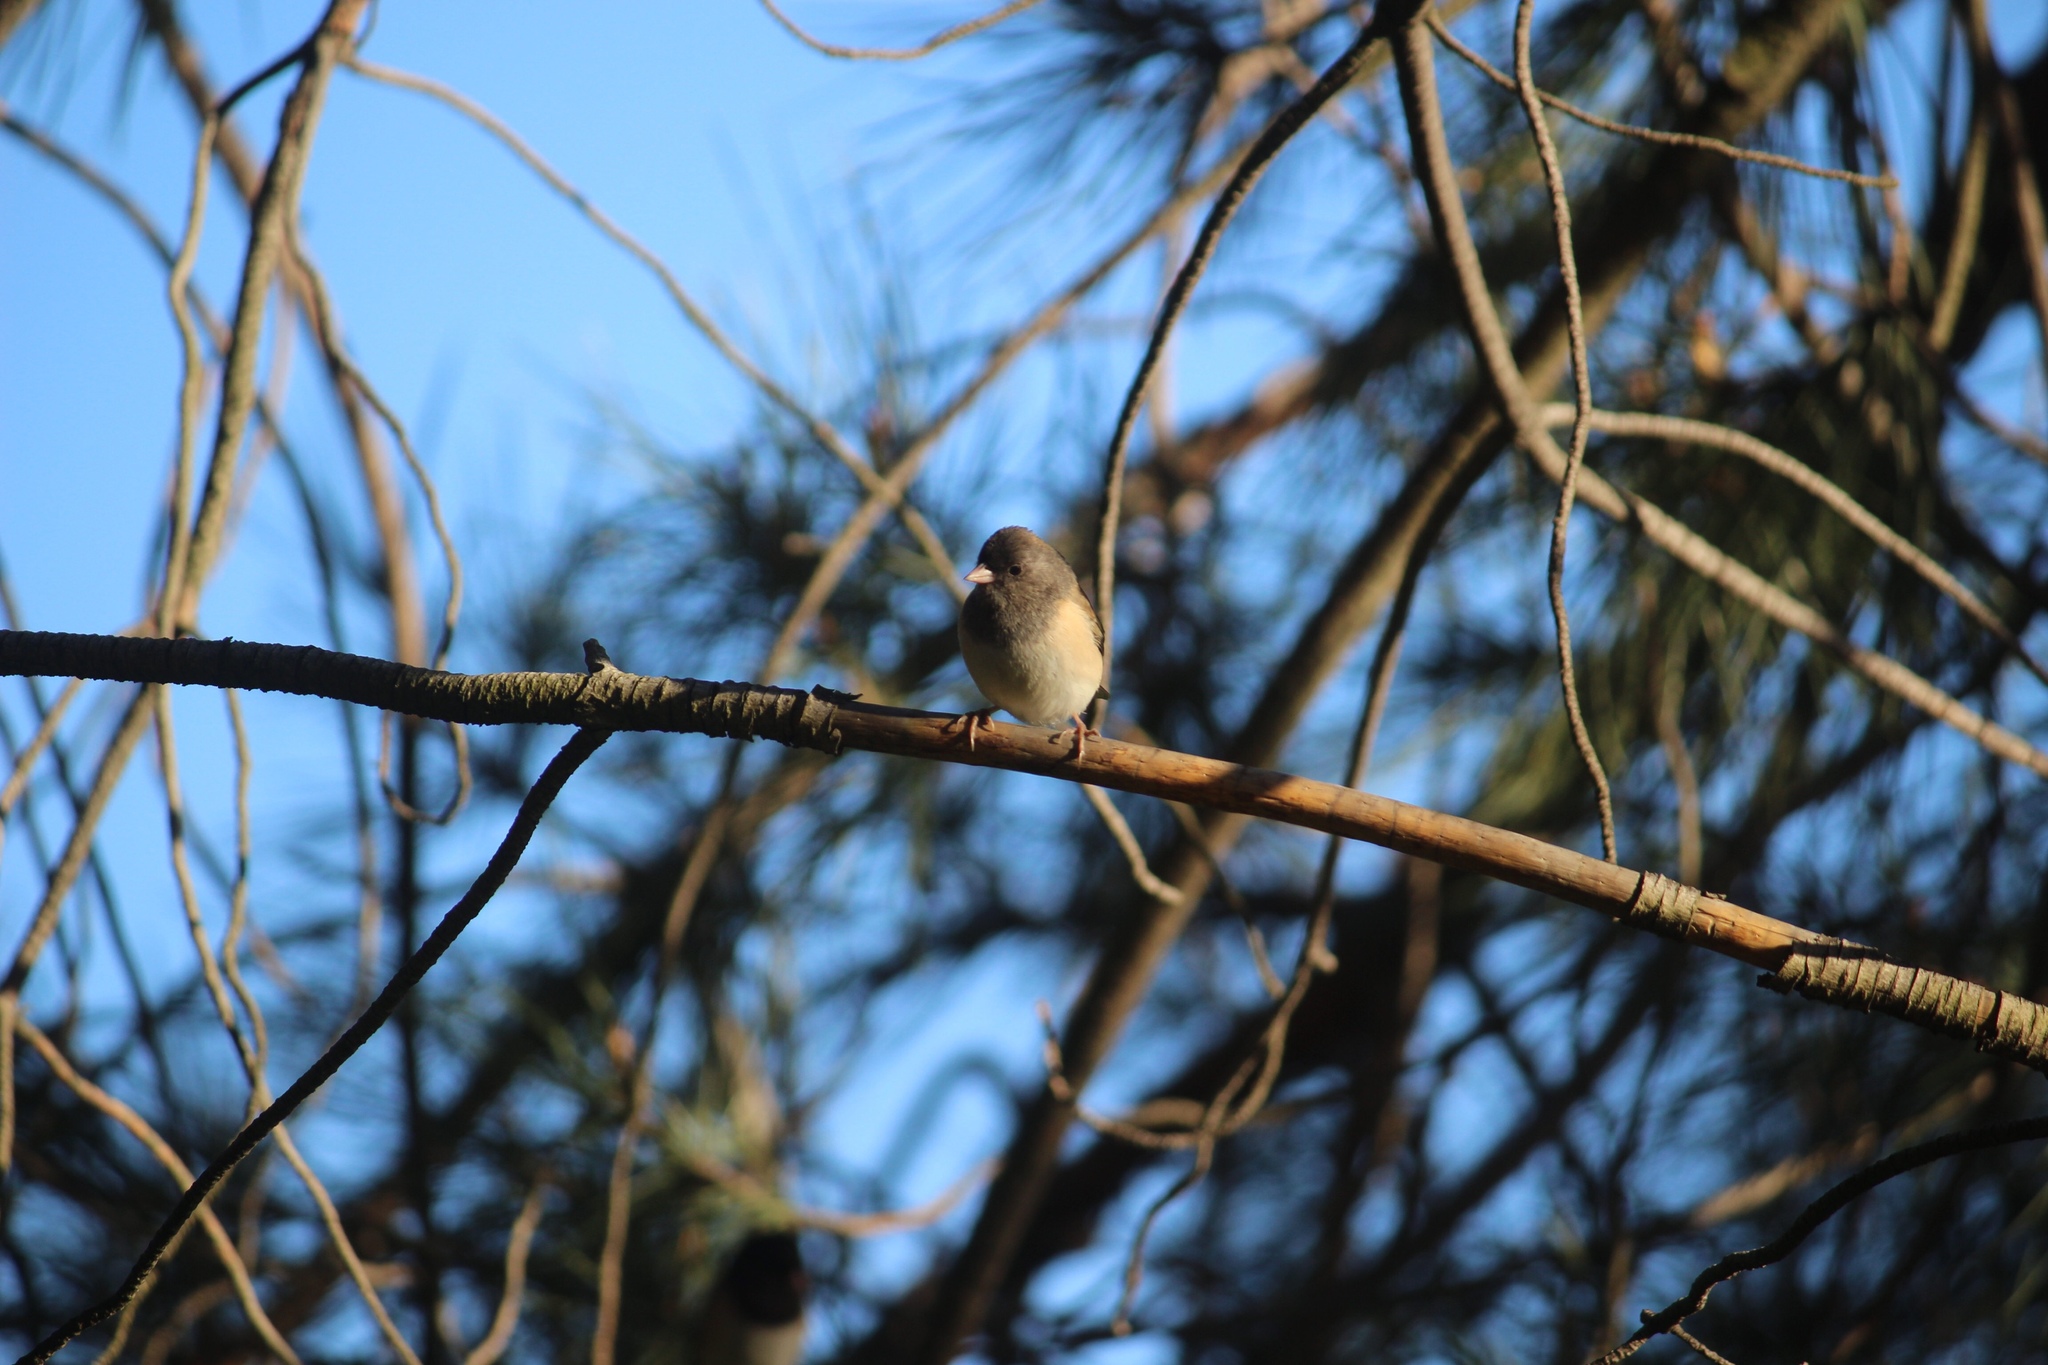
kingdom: Animalia
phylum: Chordata
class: Aves
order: Passeriformes
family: Passerellidae
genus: Junco
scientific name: Junco hyemalis
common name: Dark-eyed junco
